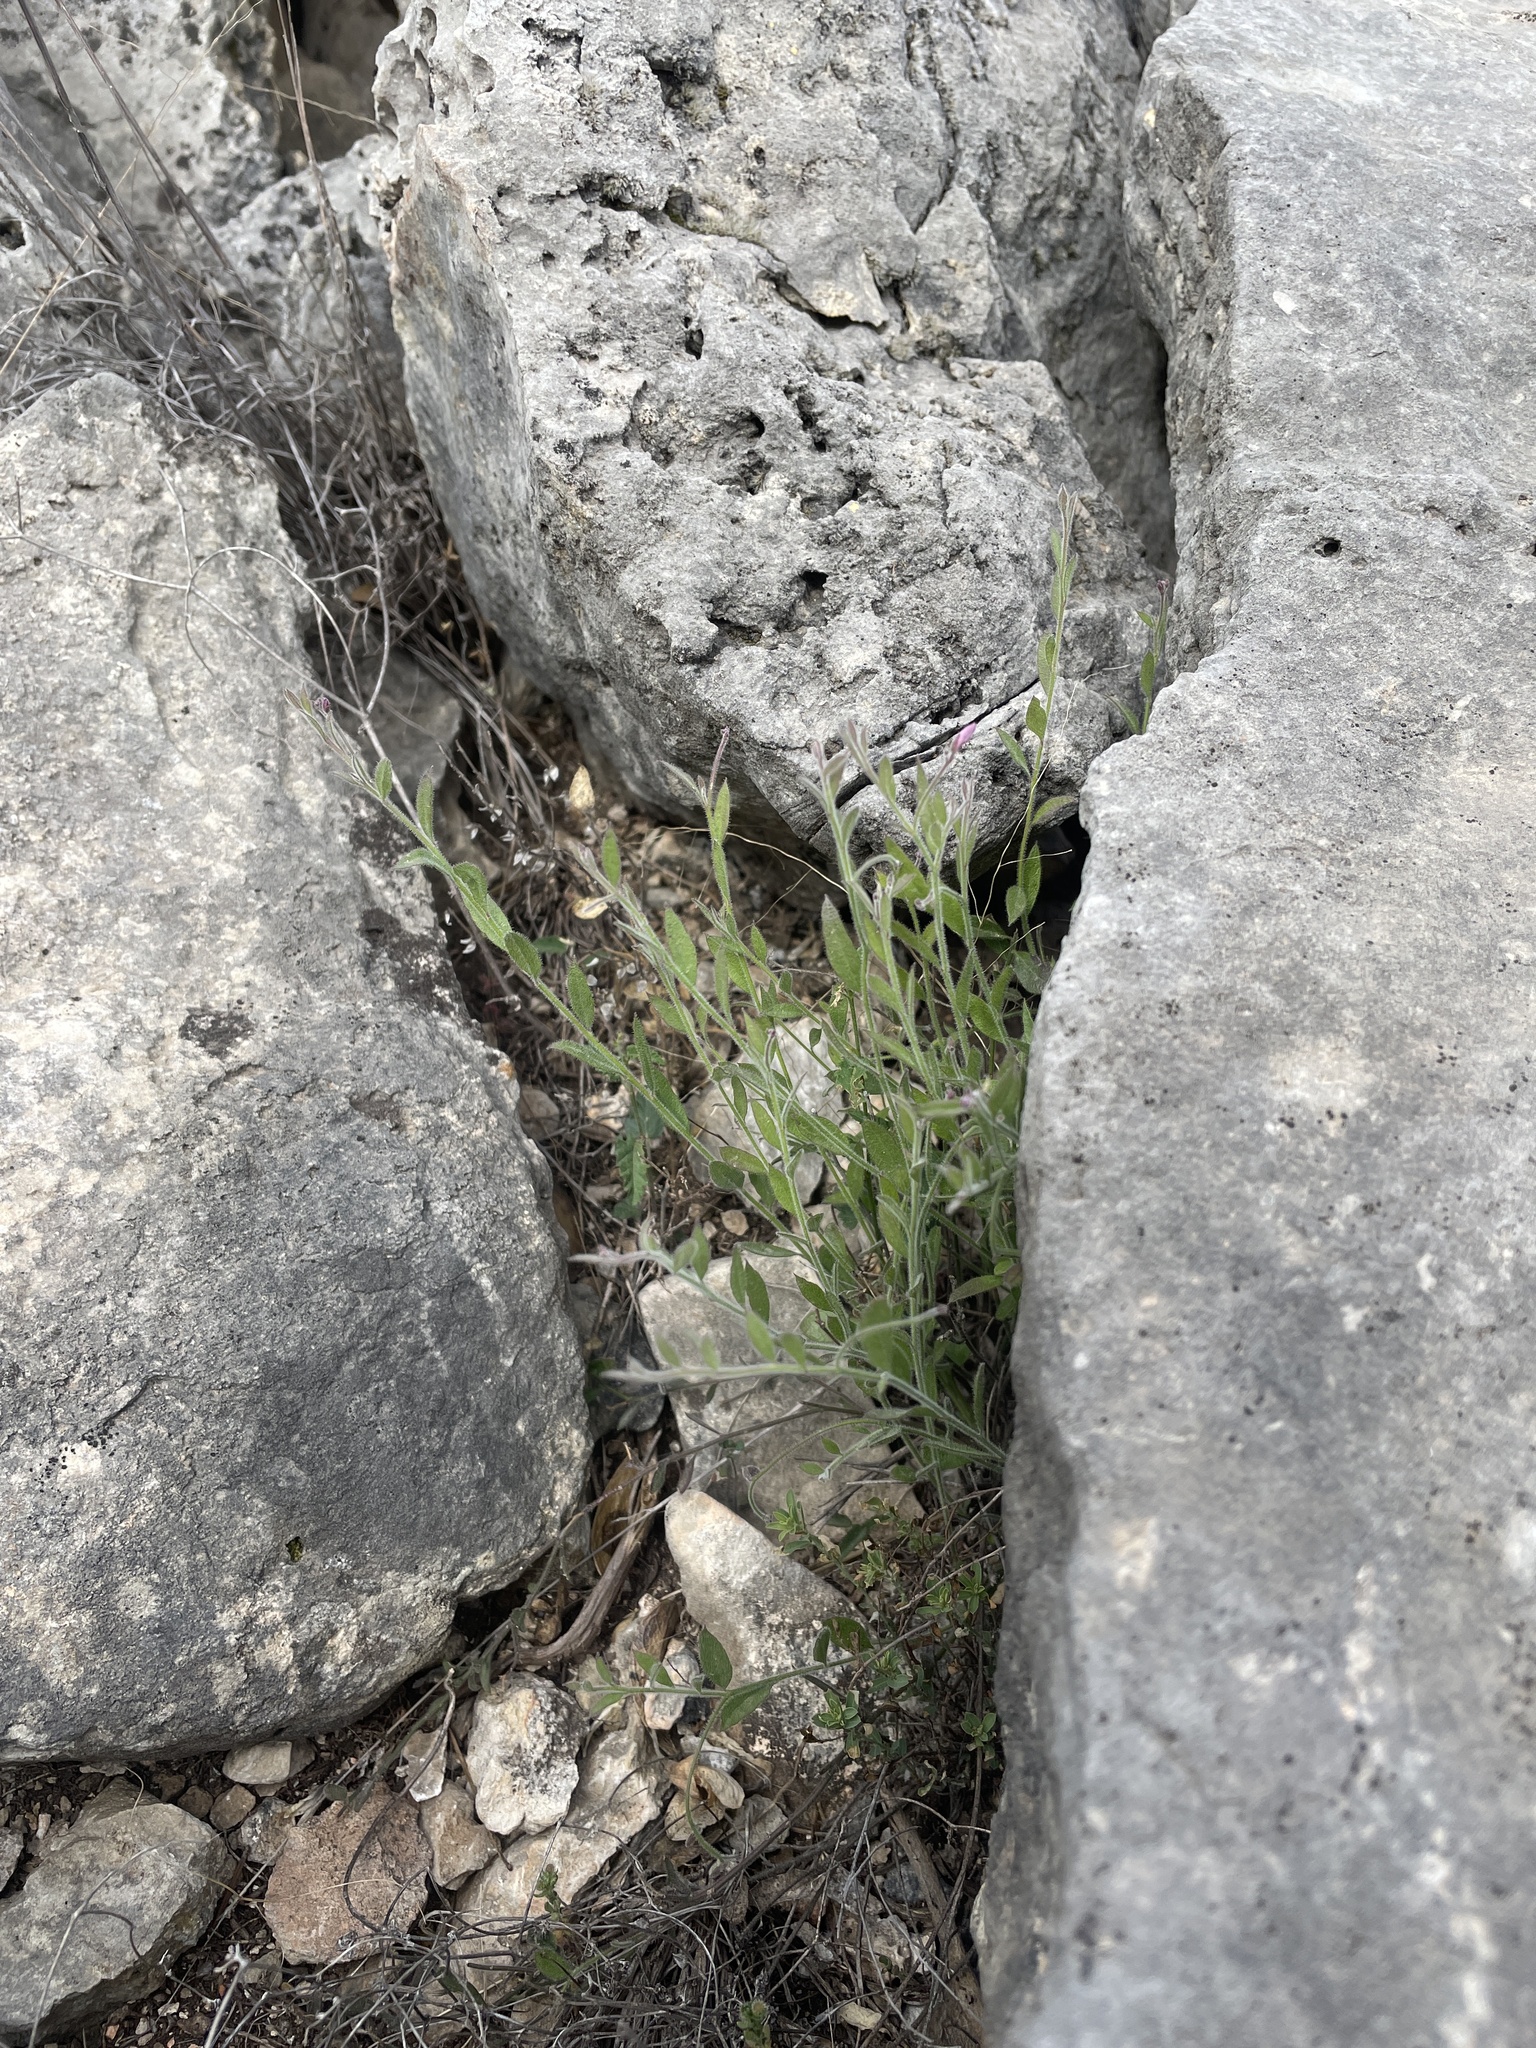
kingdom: Plantae
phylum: Tracheophyta
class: Magnoliopsida
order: Fabales
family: Polygalaceae
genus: Rhinotropis
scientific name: Rhinotropis lindheimeri
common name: Shrubby milkwort
